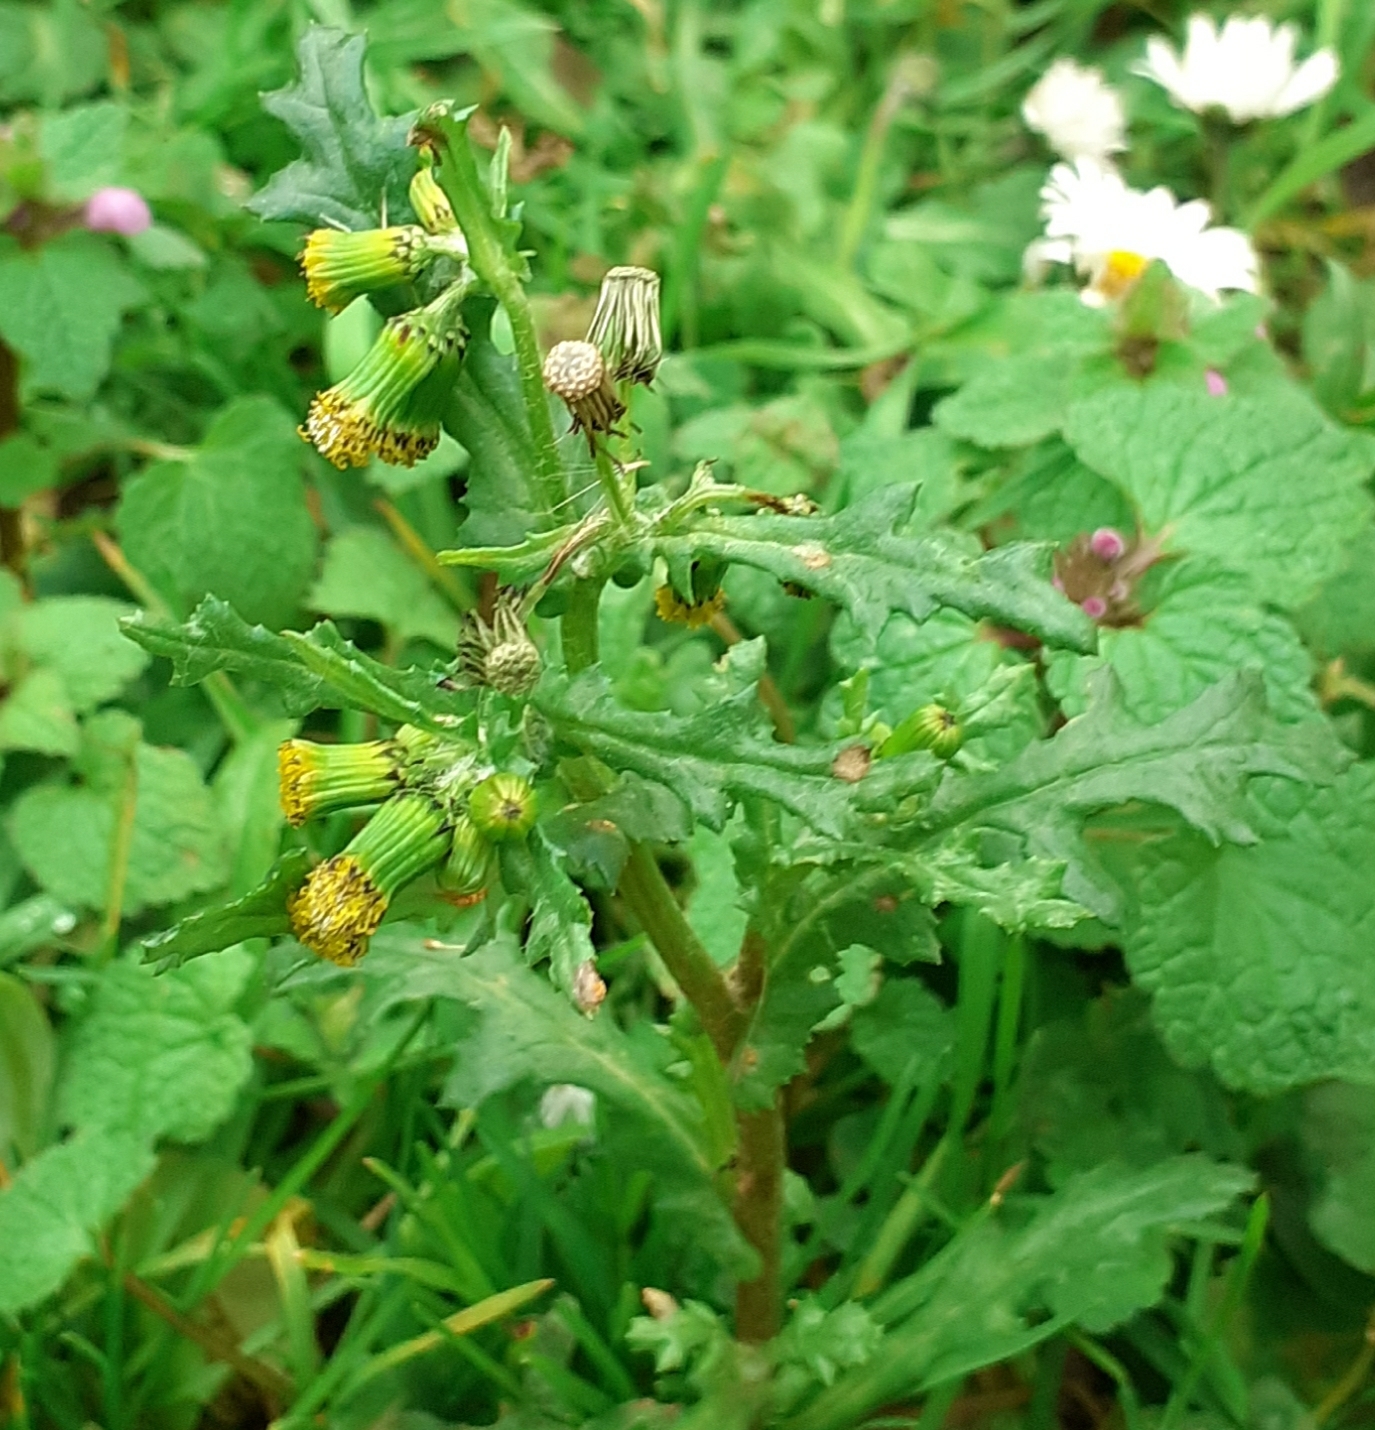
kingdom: Plantae
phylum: Tracheophyta
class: Magnoliopsida
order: Asterales
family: Asteraceae
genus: Senecio
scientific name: Senecio vulgaris
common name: Old-man-in-the-spring
